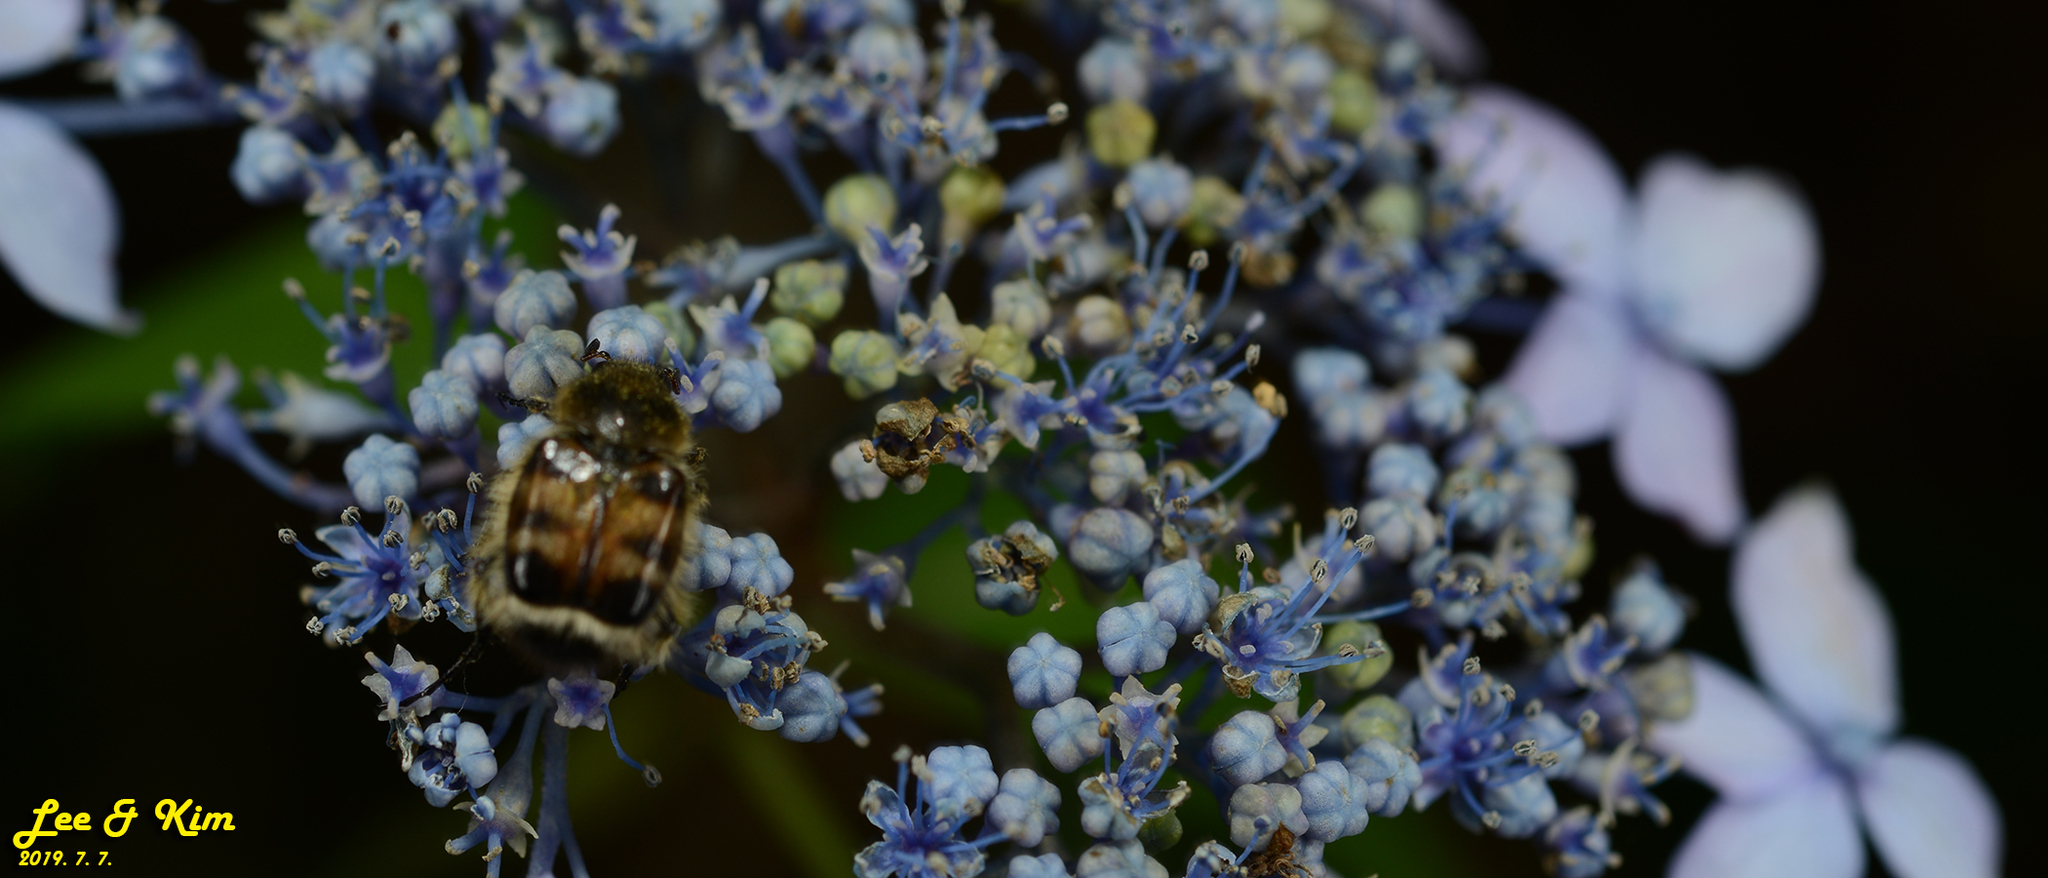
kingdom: Animalia
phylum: Arthropoda
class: Insecta
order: Coleoptera
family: Scarabaeidae
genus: Lasiotrichius
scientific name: Lasiotrichius succinctus
